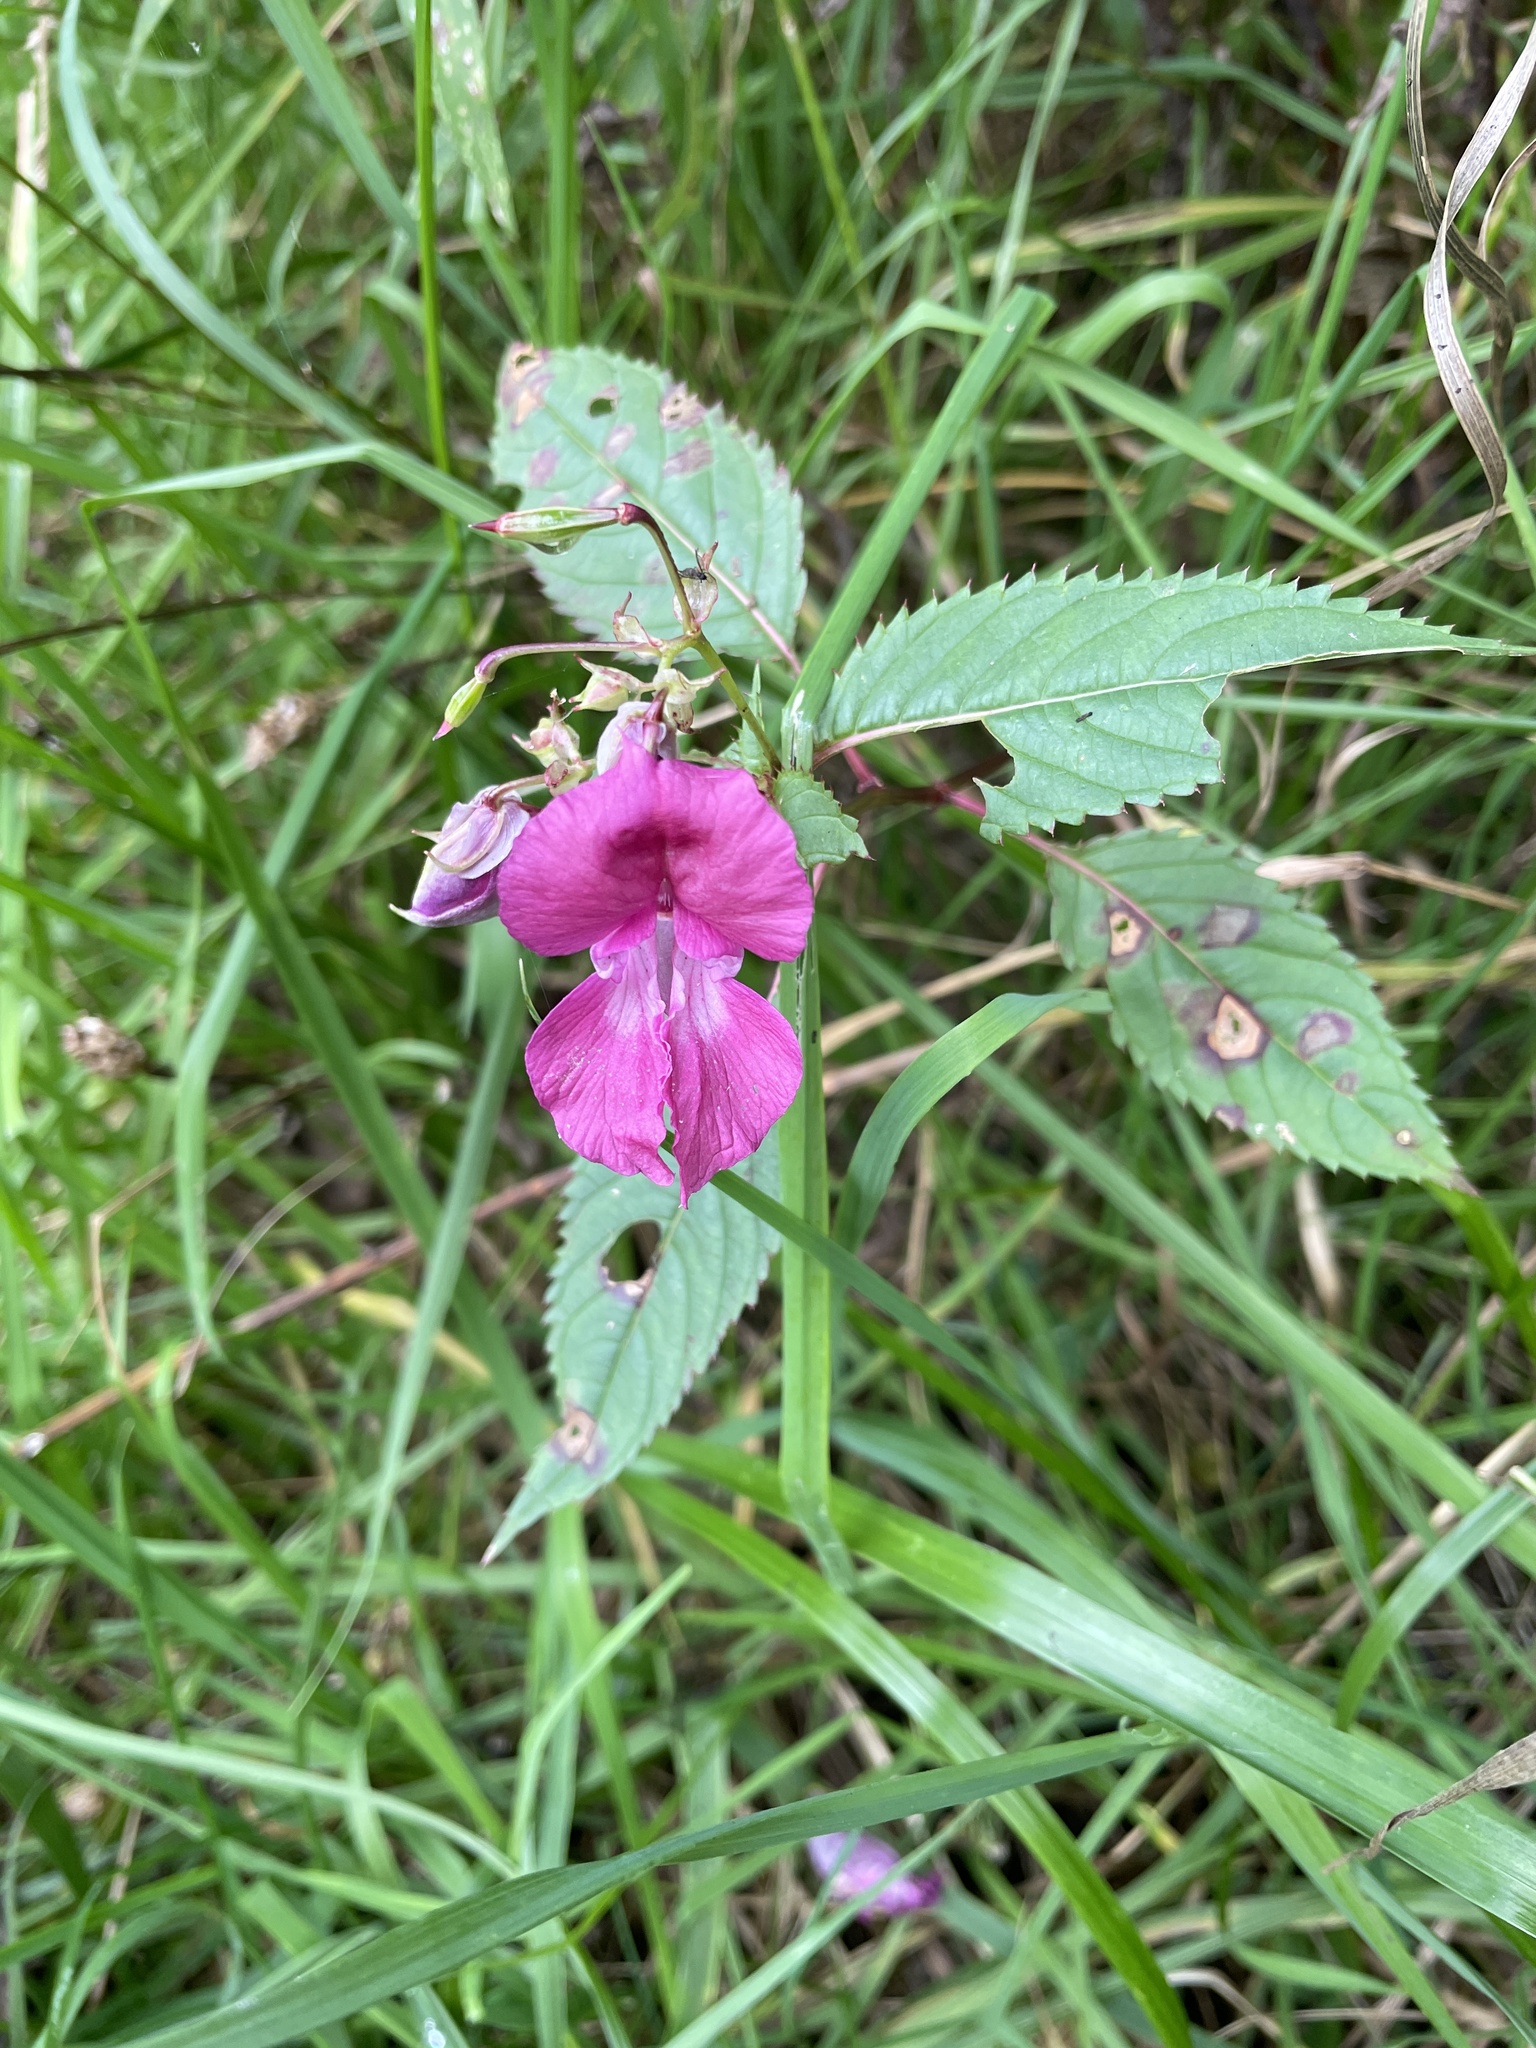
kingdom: Plantae
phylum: Tracheophyta
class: Magnoliopsida
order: Ericales
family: Balsaminaceae
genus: Impatiens
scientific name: Impatiens glandulifera
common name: Himalayan balsam
